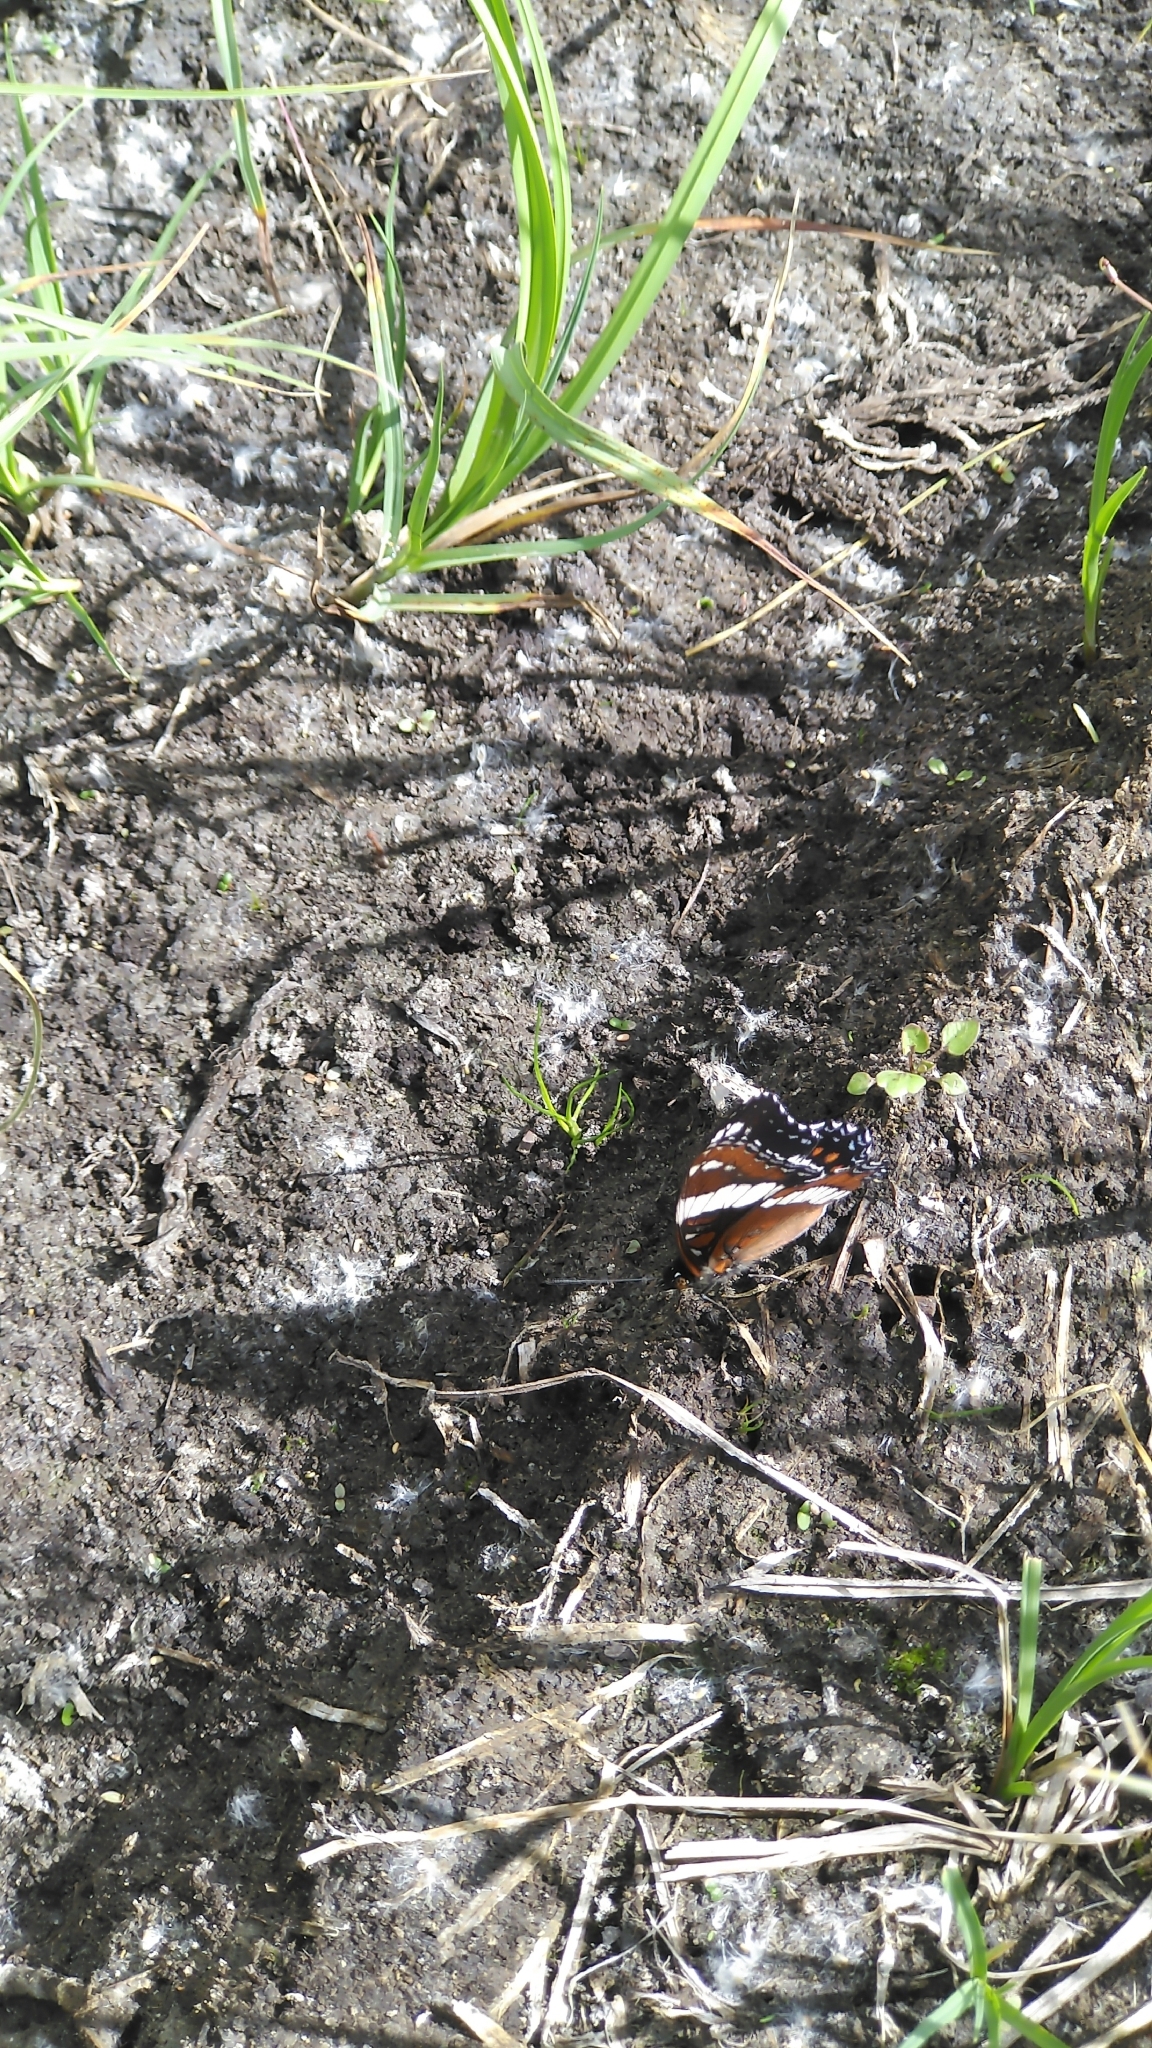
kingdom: Animalia
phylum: Arthropoda
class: Insecta
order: Lepidoptera
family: Nymphalidae
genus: Limenitis
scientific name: Limenitis arthemis
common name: Red-spotted admiral
